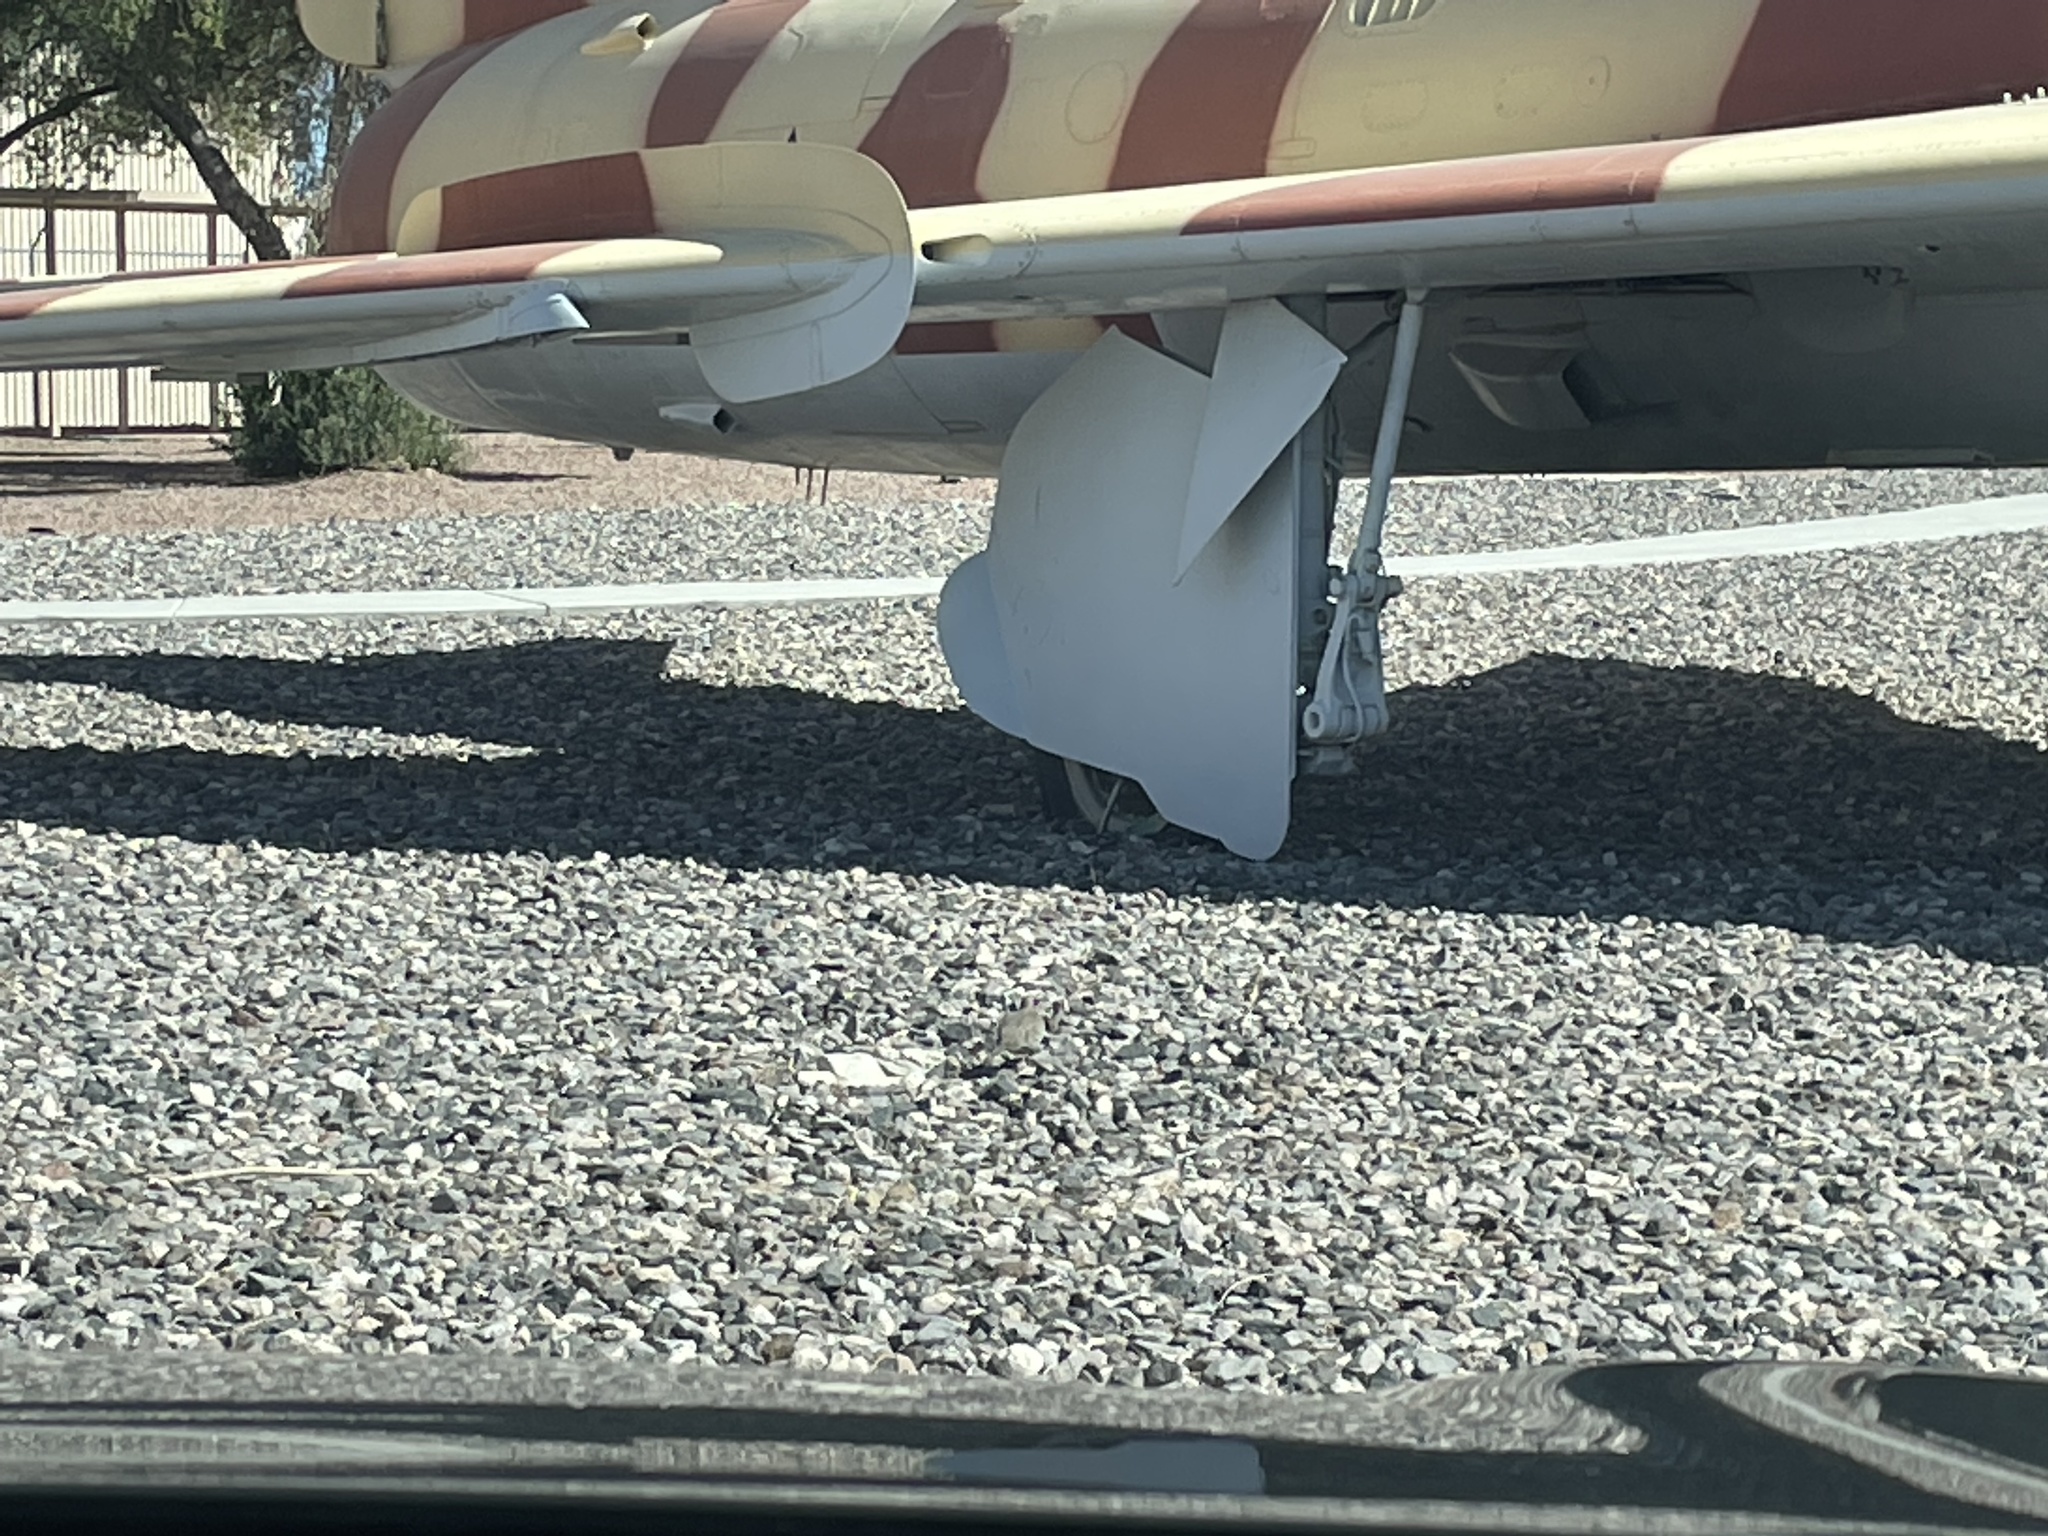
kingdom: Animalia
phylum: Chordata
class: Aves
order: Columbiformes
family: Columbidae
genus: Zenaida
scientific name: Zenaida macroura
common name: Mourning dove
